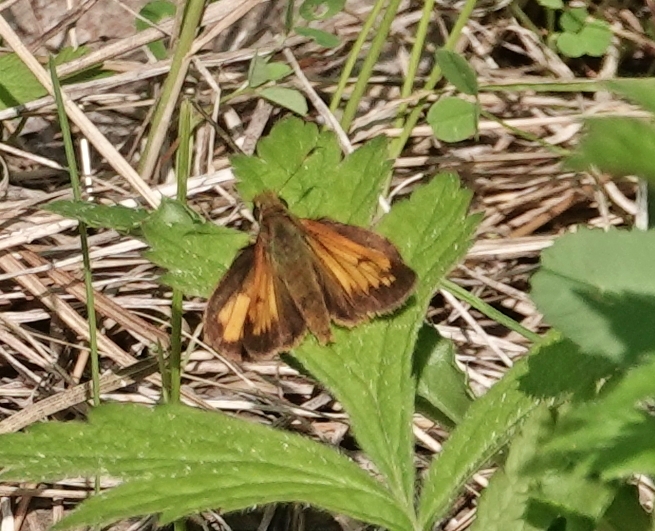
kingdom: Animalia
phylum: Arthropoda
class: Insecta
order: Lepidoptera
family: Hesperiidae
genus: Lon
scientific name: Lon hobomok
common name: Hobomok skipper
